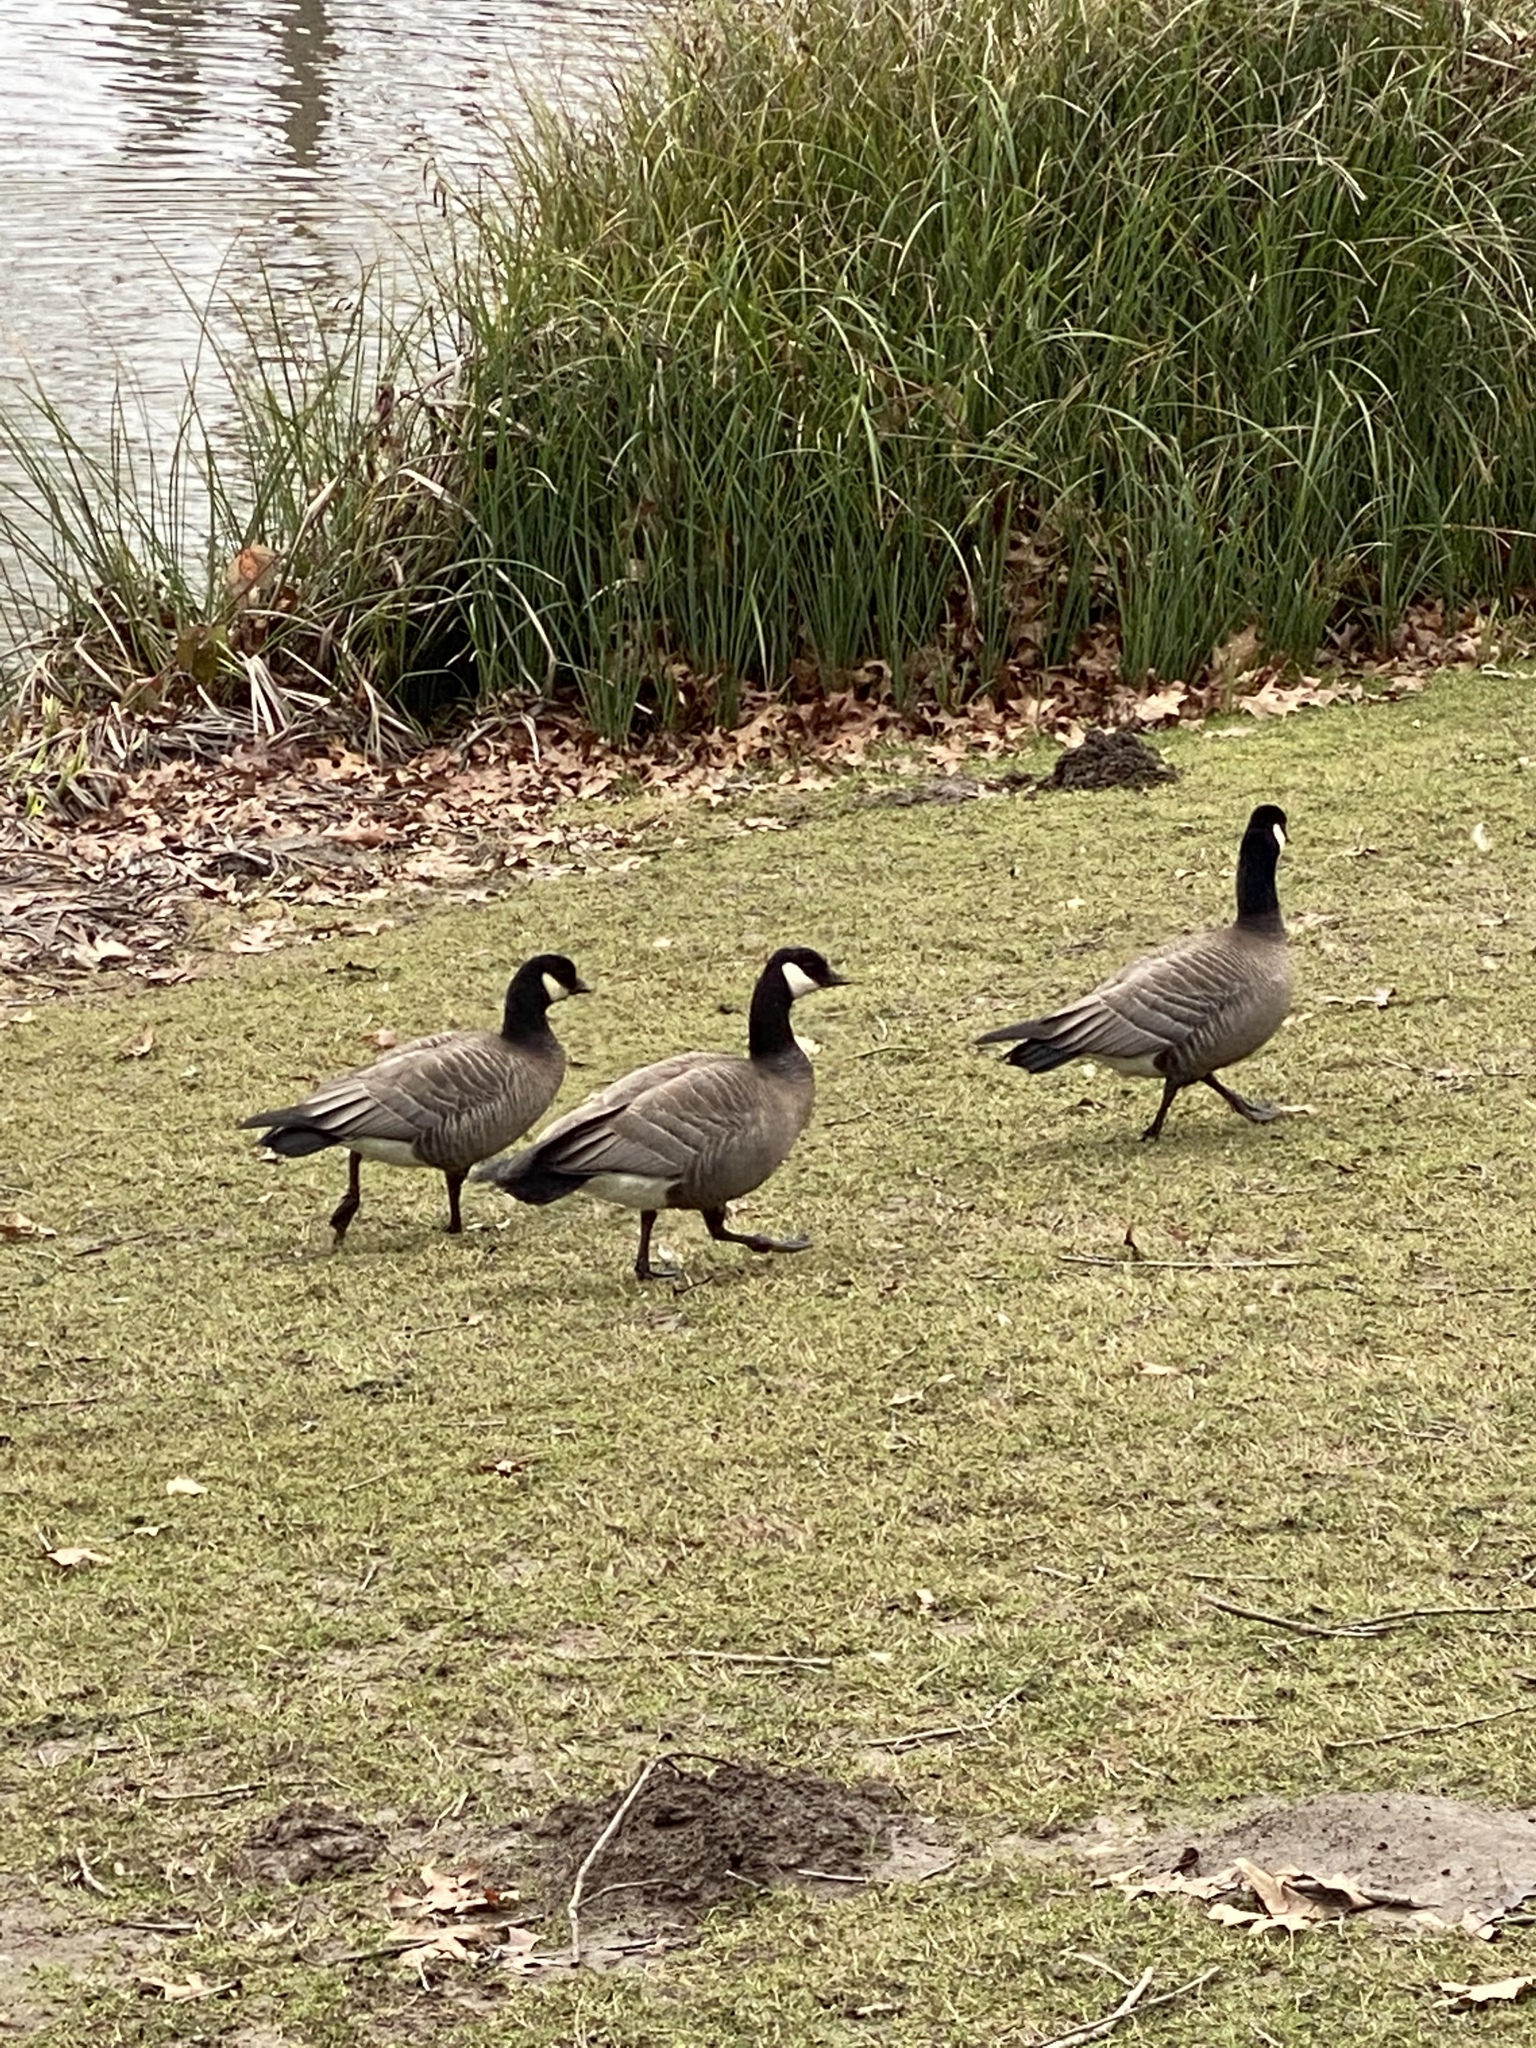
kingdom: Animalia
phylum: Chordata
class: Aves
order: Anseriformes
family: Anatidae
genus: Branta
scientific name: Branta hutchinsii
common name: Cackling goose
